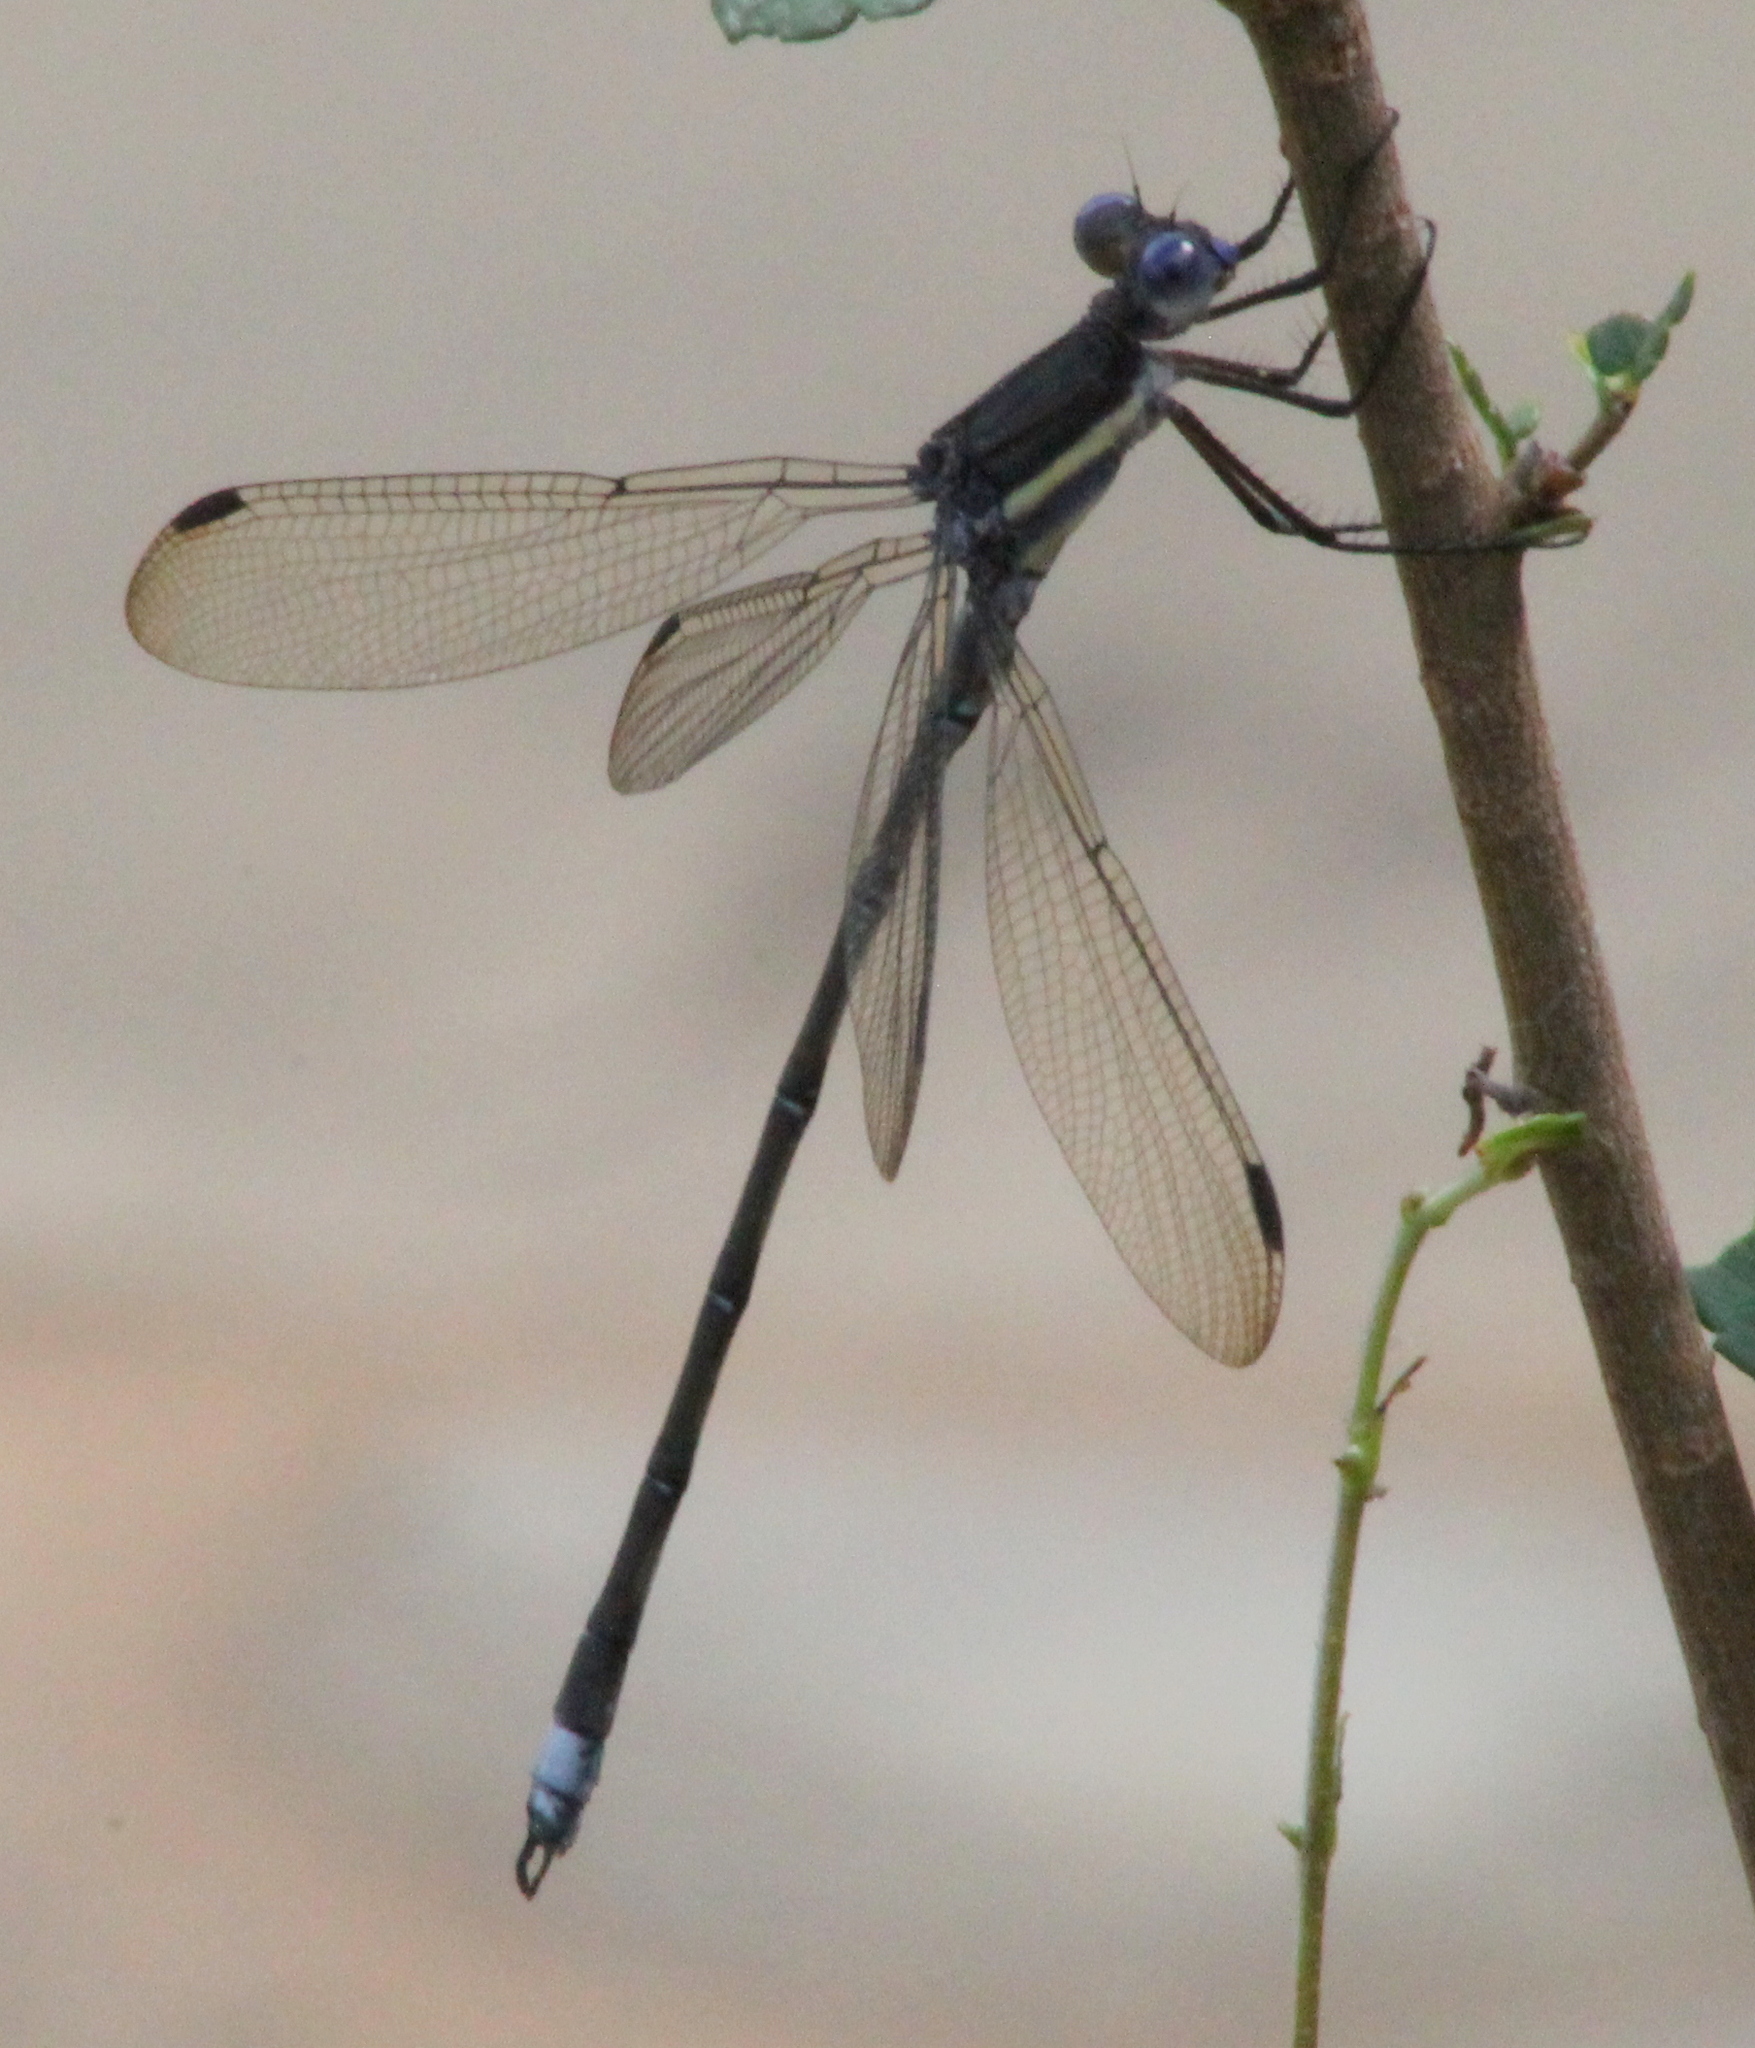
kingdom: Animalia
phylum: Arthropoda
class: Insecta
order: Odonata
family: Lestidae
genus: Archilestes
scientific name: Archilestes grandis
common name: Great spreadwing
